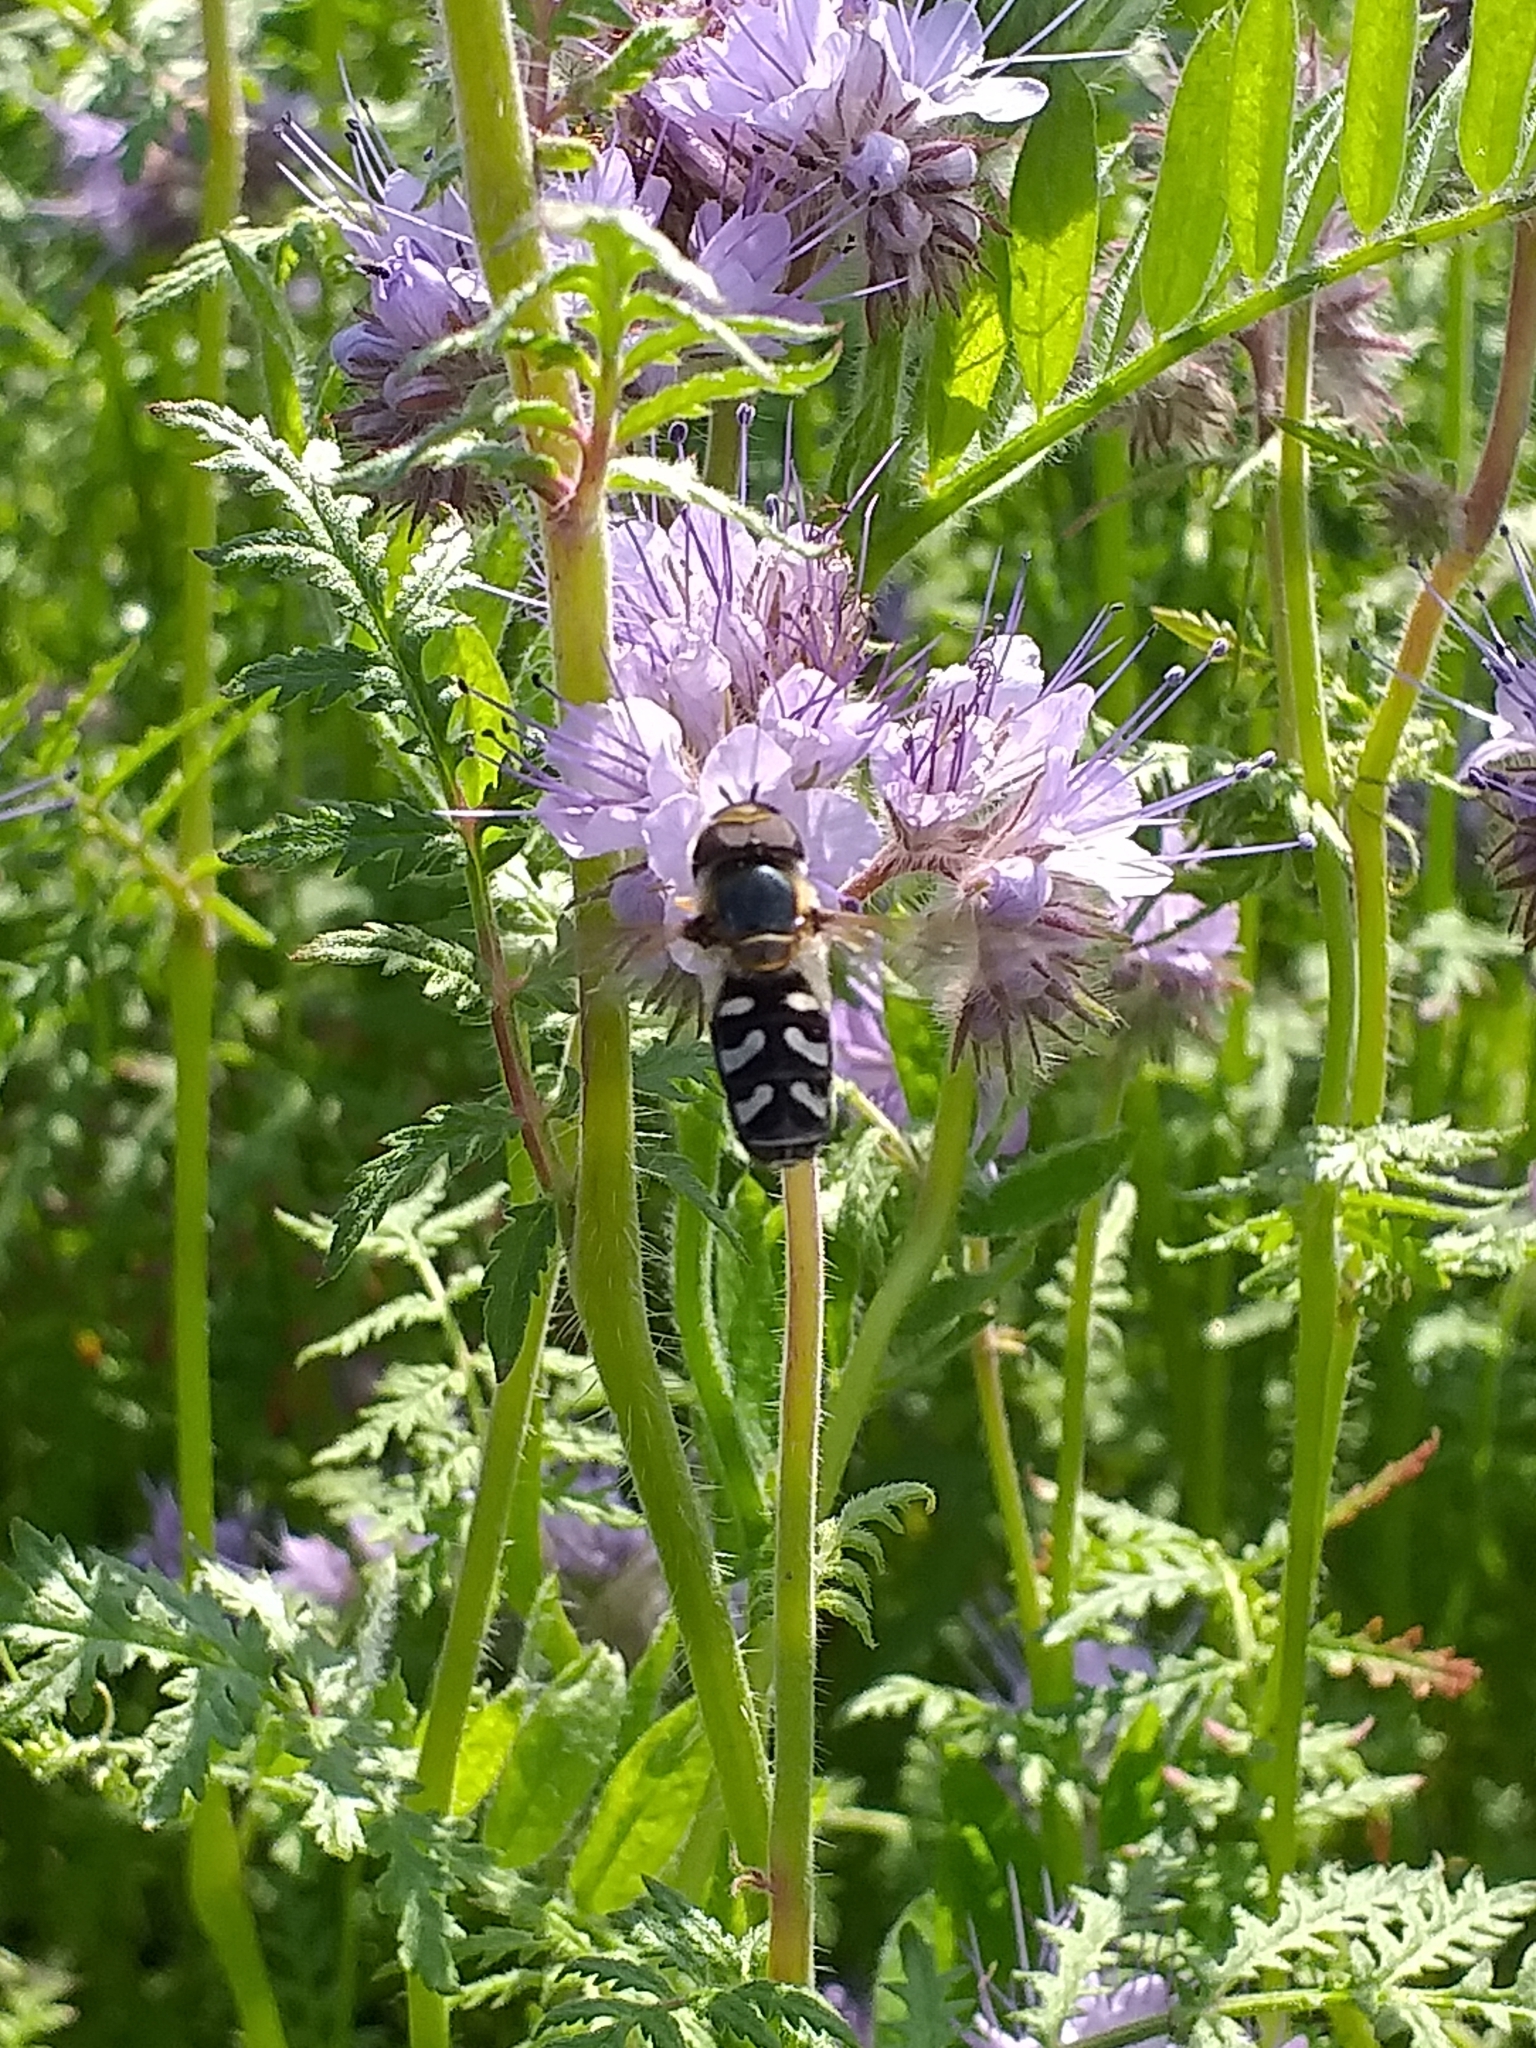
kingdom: Animalia
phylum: Arthropoda
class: Insecta
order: Diptera
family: Syrphidae
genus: Scaeva
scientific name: Scaeva pyrastri
